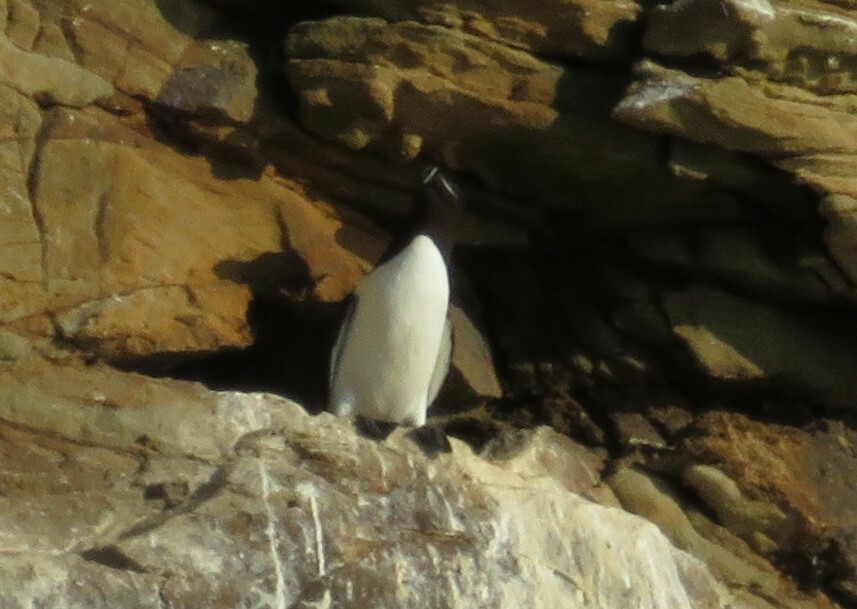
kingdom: Animalia
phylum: Chordata
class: Aves
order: Charadriiformes
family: Alcidae
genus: Alca
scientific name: Alca torda
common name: Razorbill
